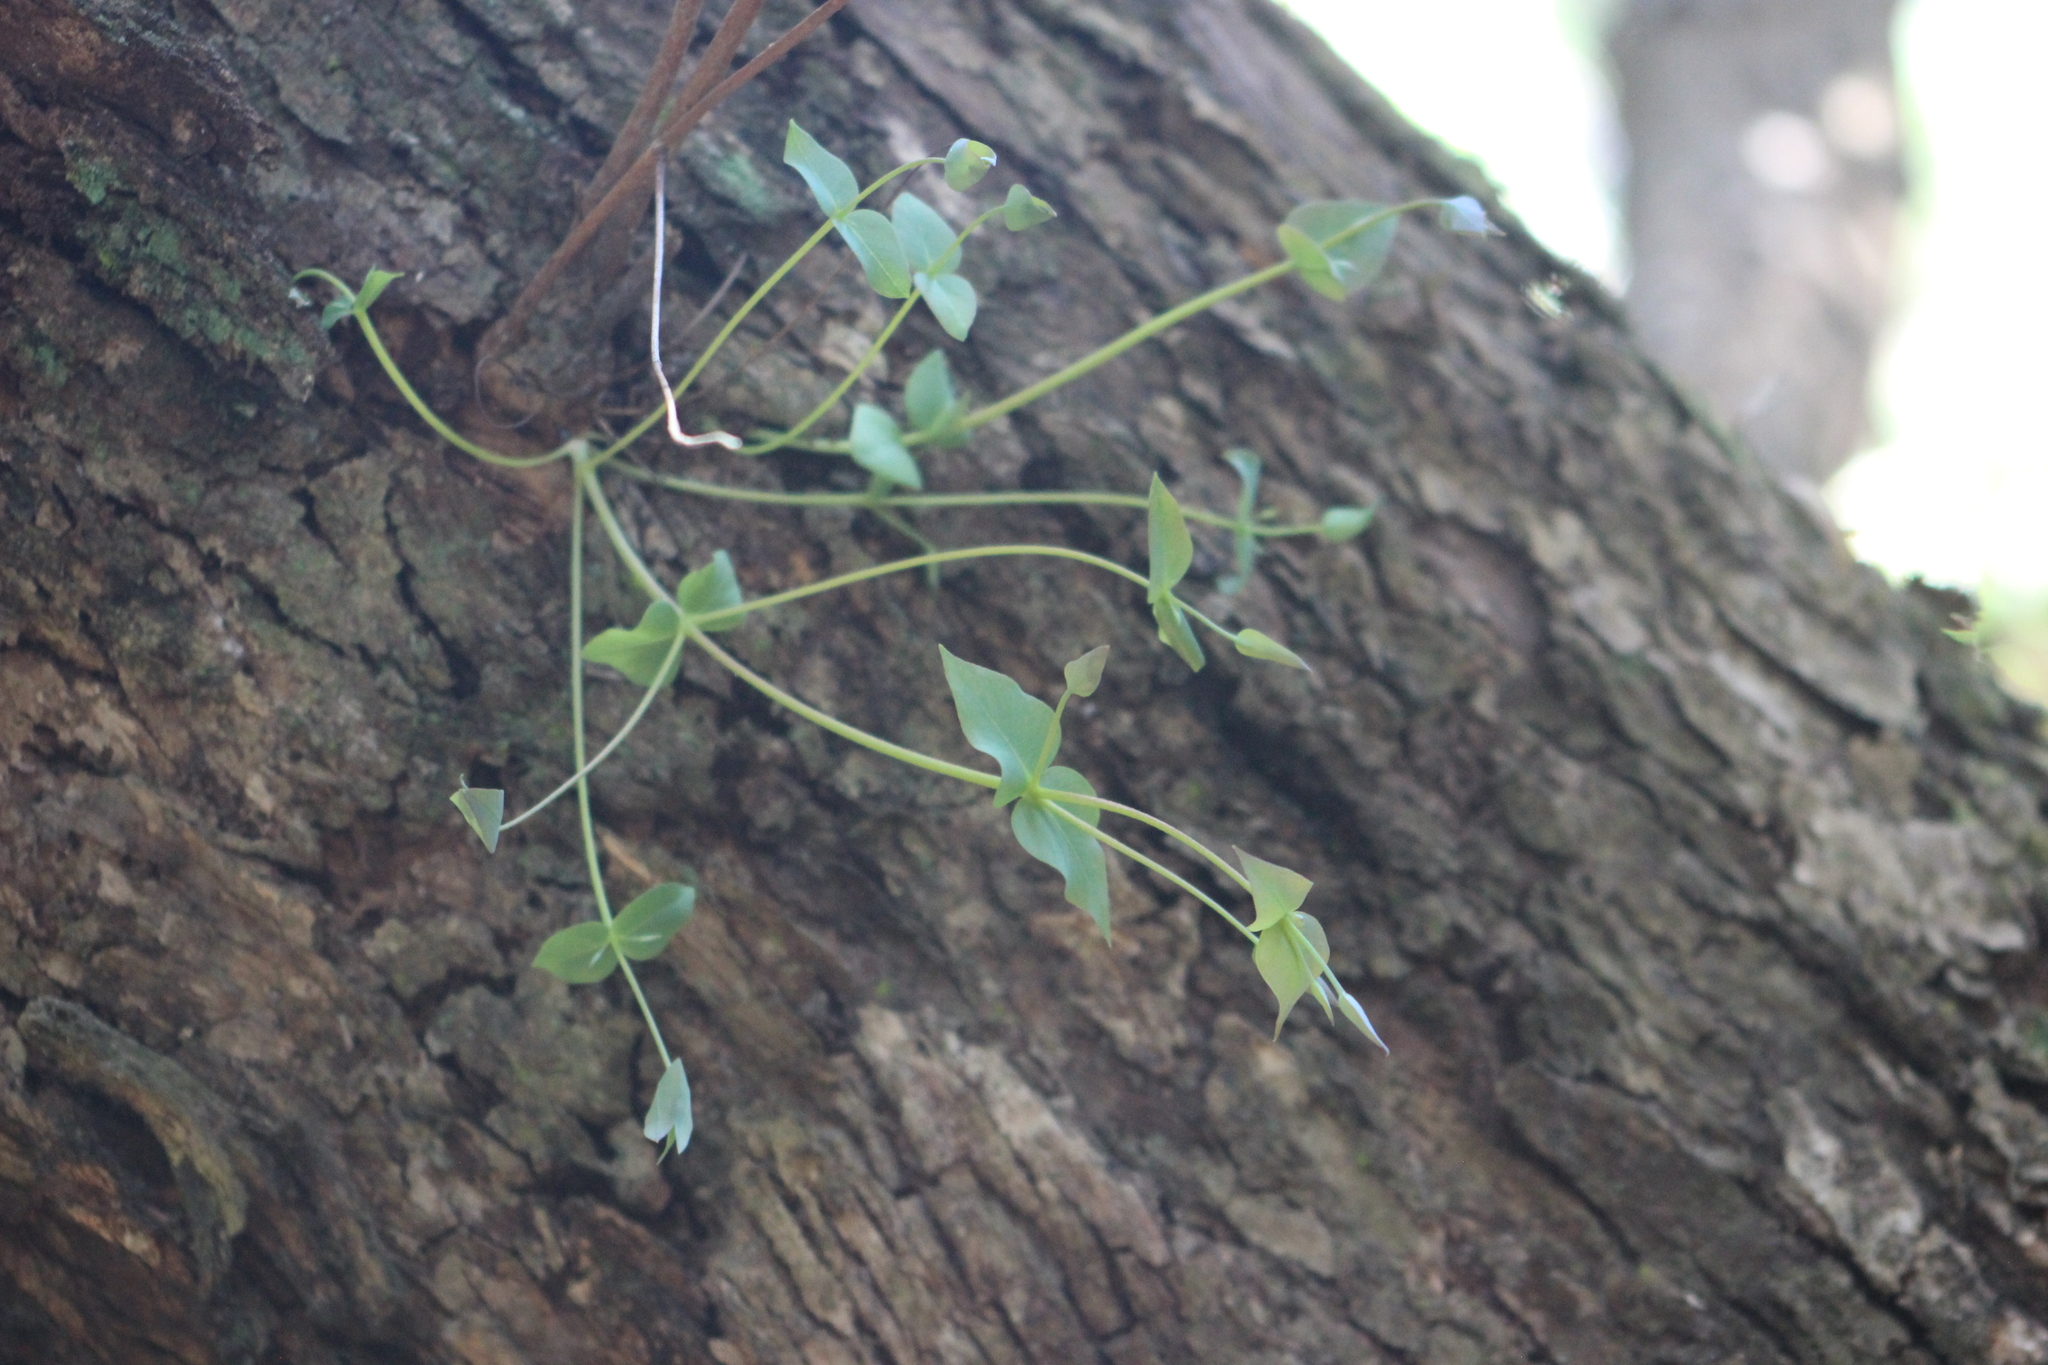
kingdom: Plantae
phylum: Tracheophyta
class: Magnoliopsida
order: Ericales
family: Primulaceae
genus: Lysimachia
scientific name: Lysimachia arvensis
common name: Scarlet pimpernel
